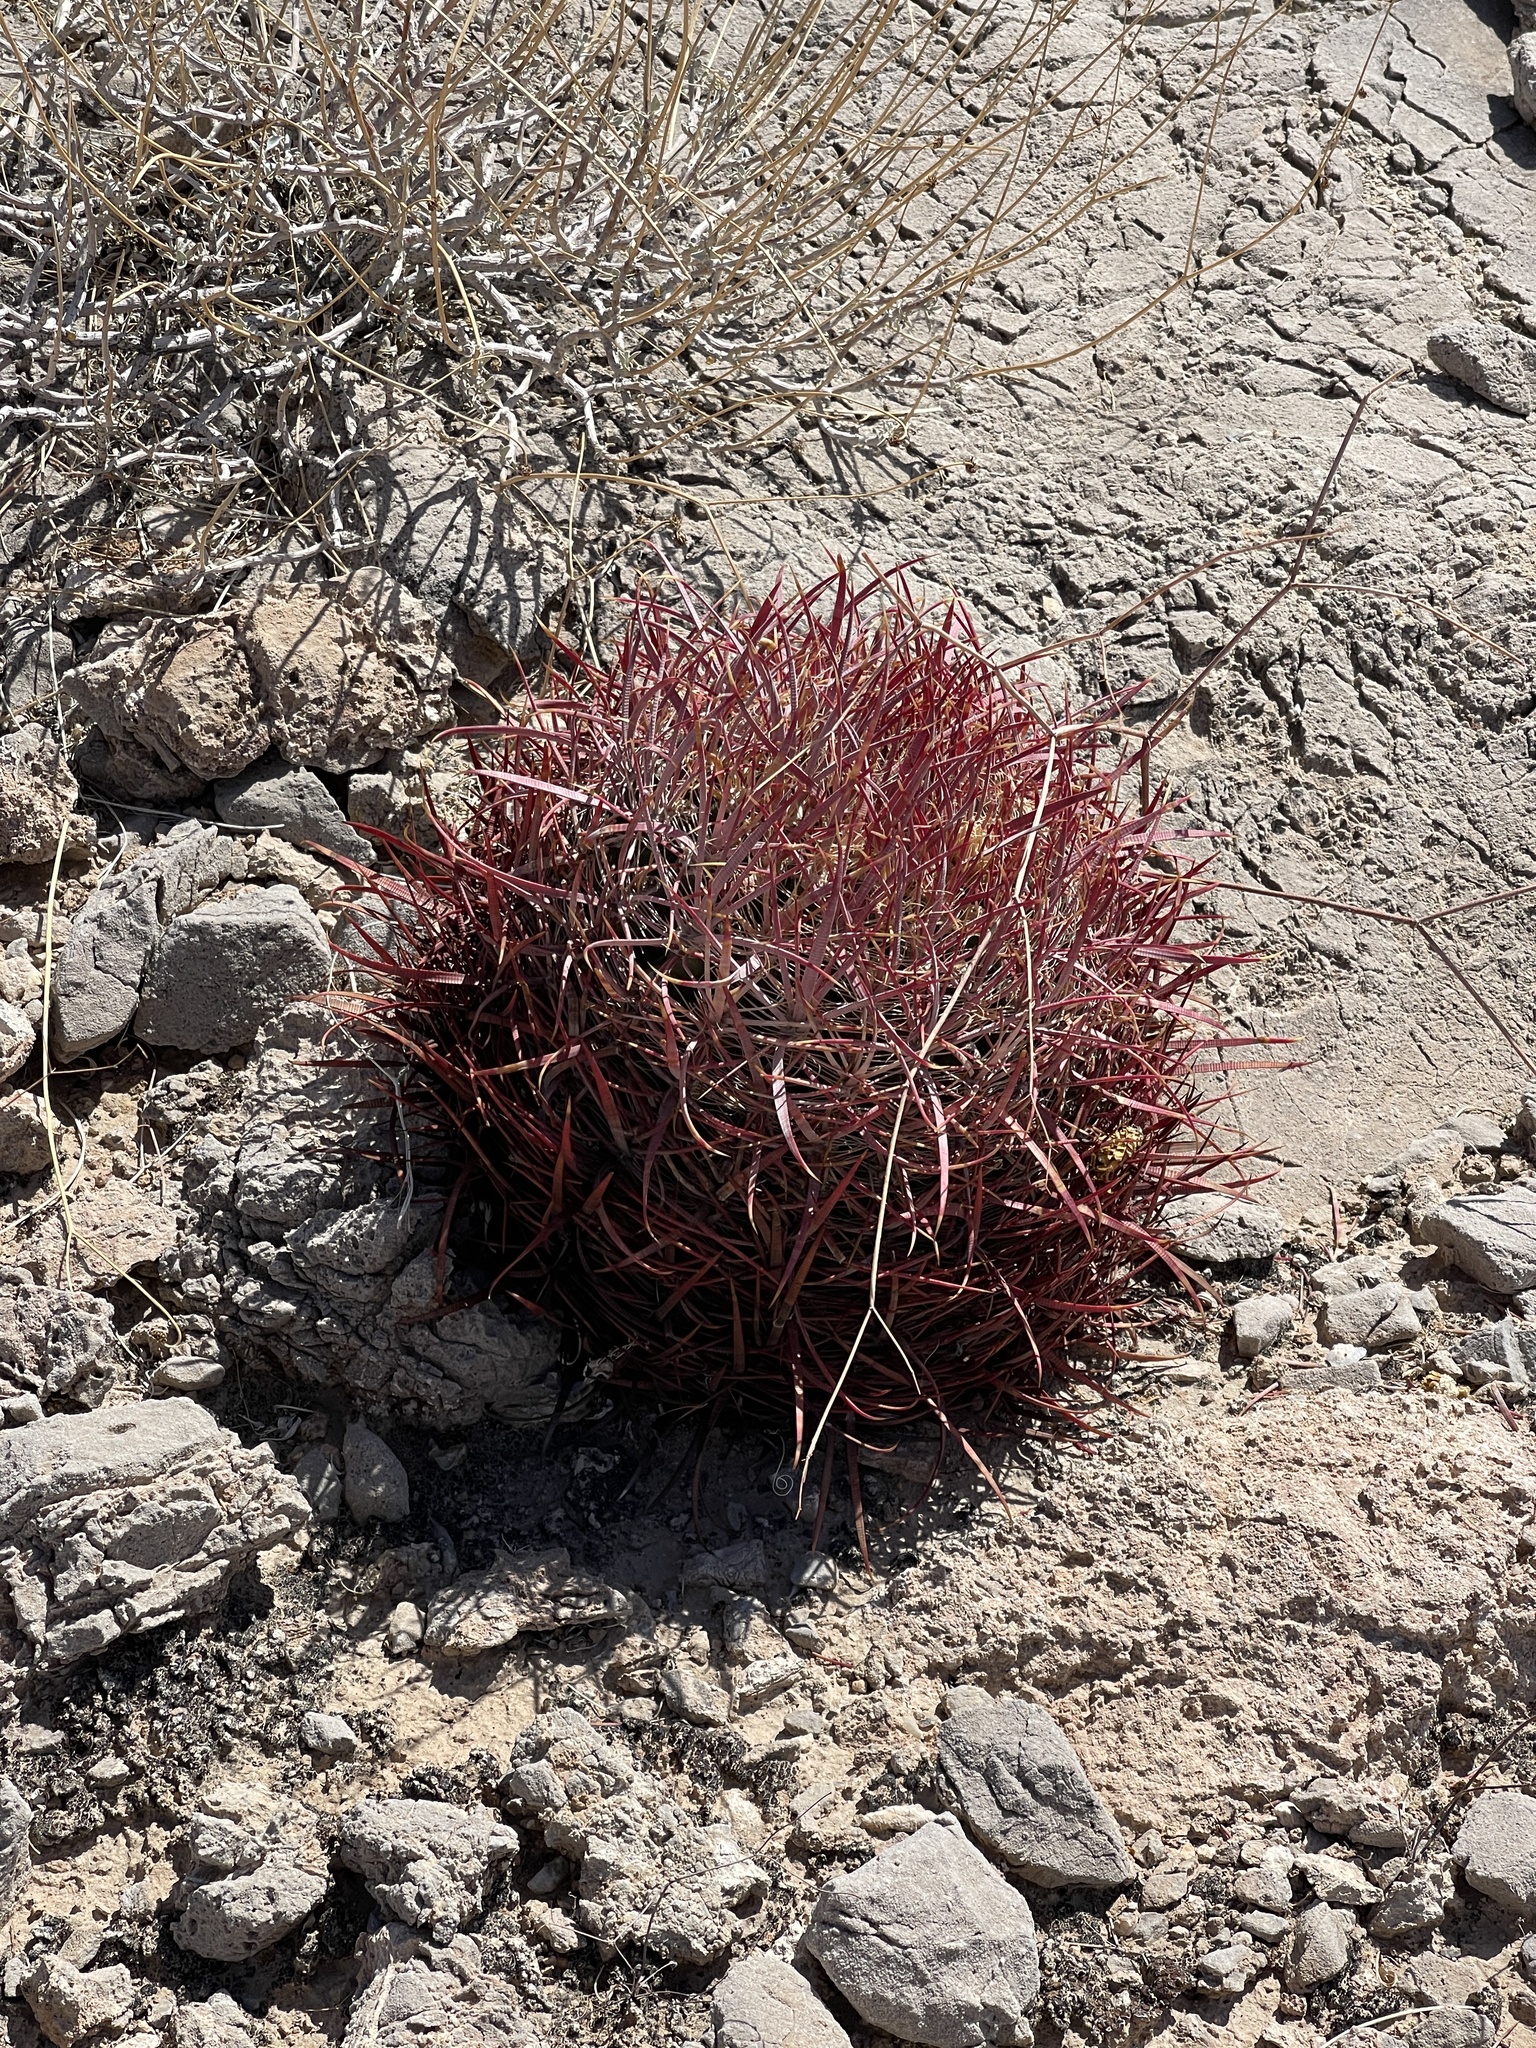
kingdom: Plantae
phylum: Tracheophyta
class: Magnoliopsida
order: Caryophyllales
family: Cactaceae
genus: Ferocactus
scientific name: Ferocactus cylindraceus
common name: California barrel cactus
